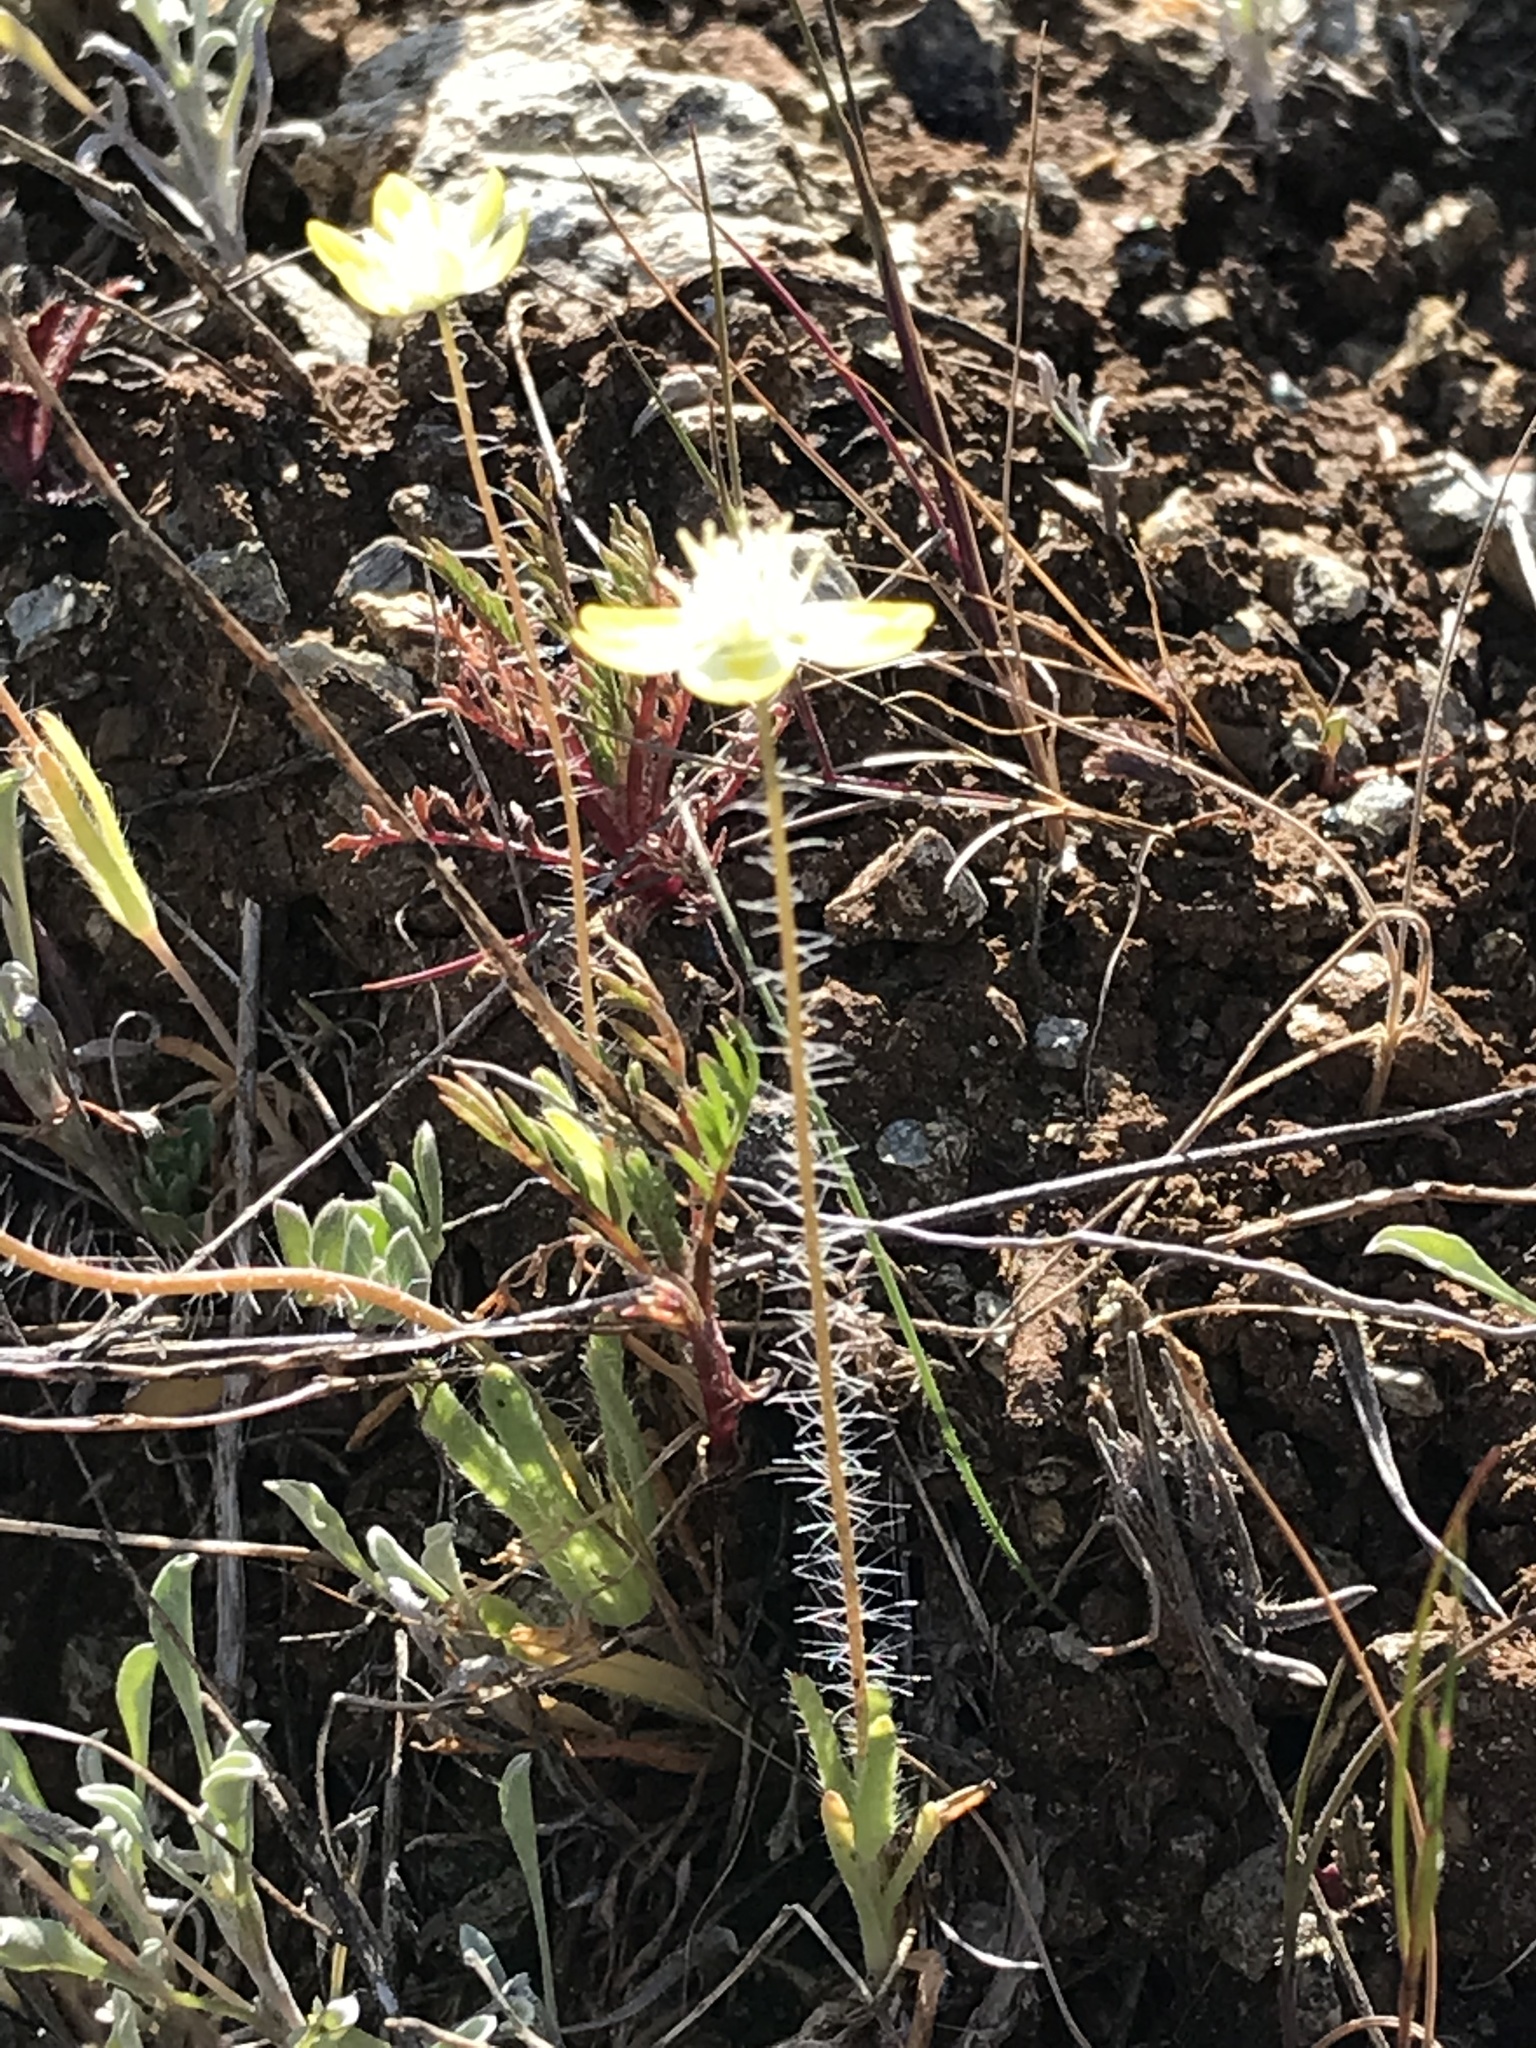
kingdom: Plantae
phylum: Tracheophyta
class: Magnoliopsida
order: Ranunculales
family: Papaveraceae
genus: Platystemon
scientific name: Platystemon californicus
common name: Cream-cups
